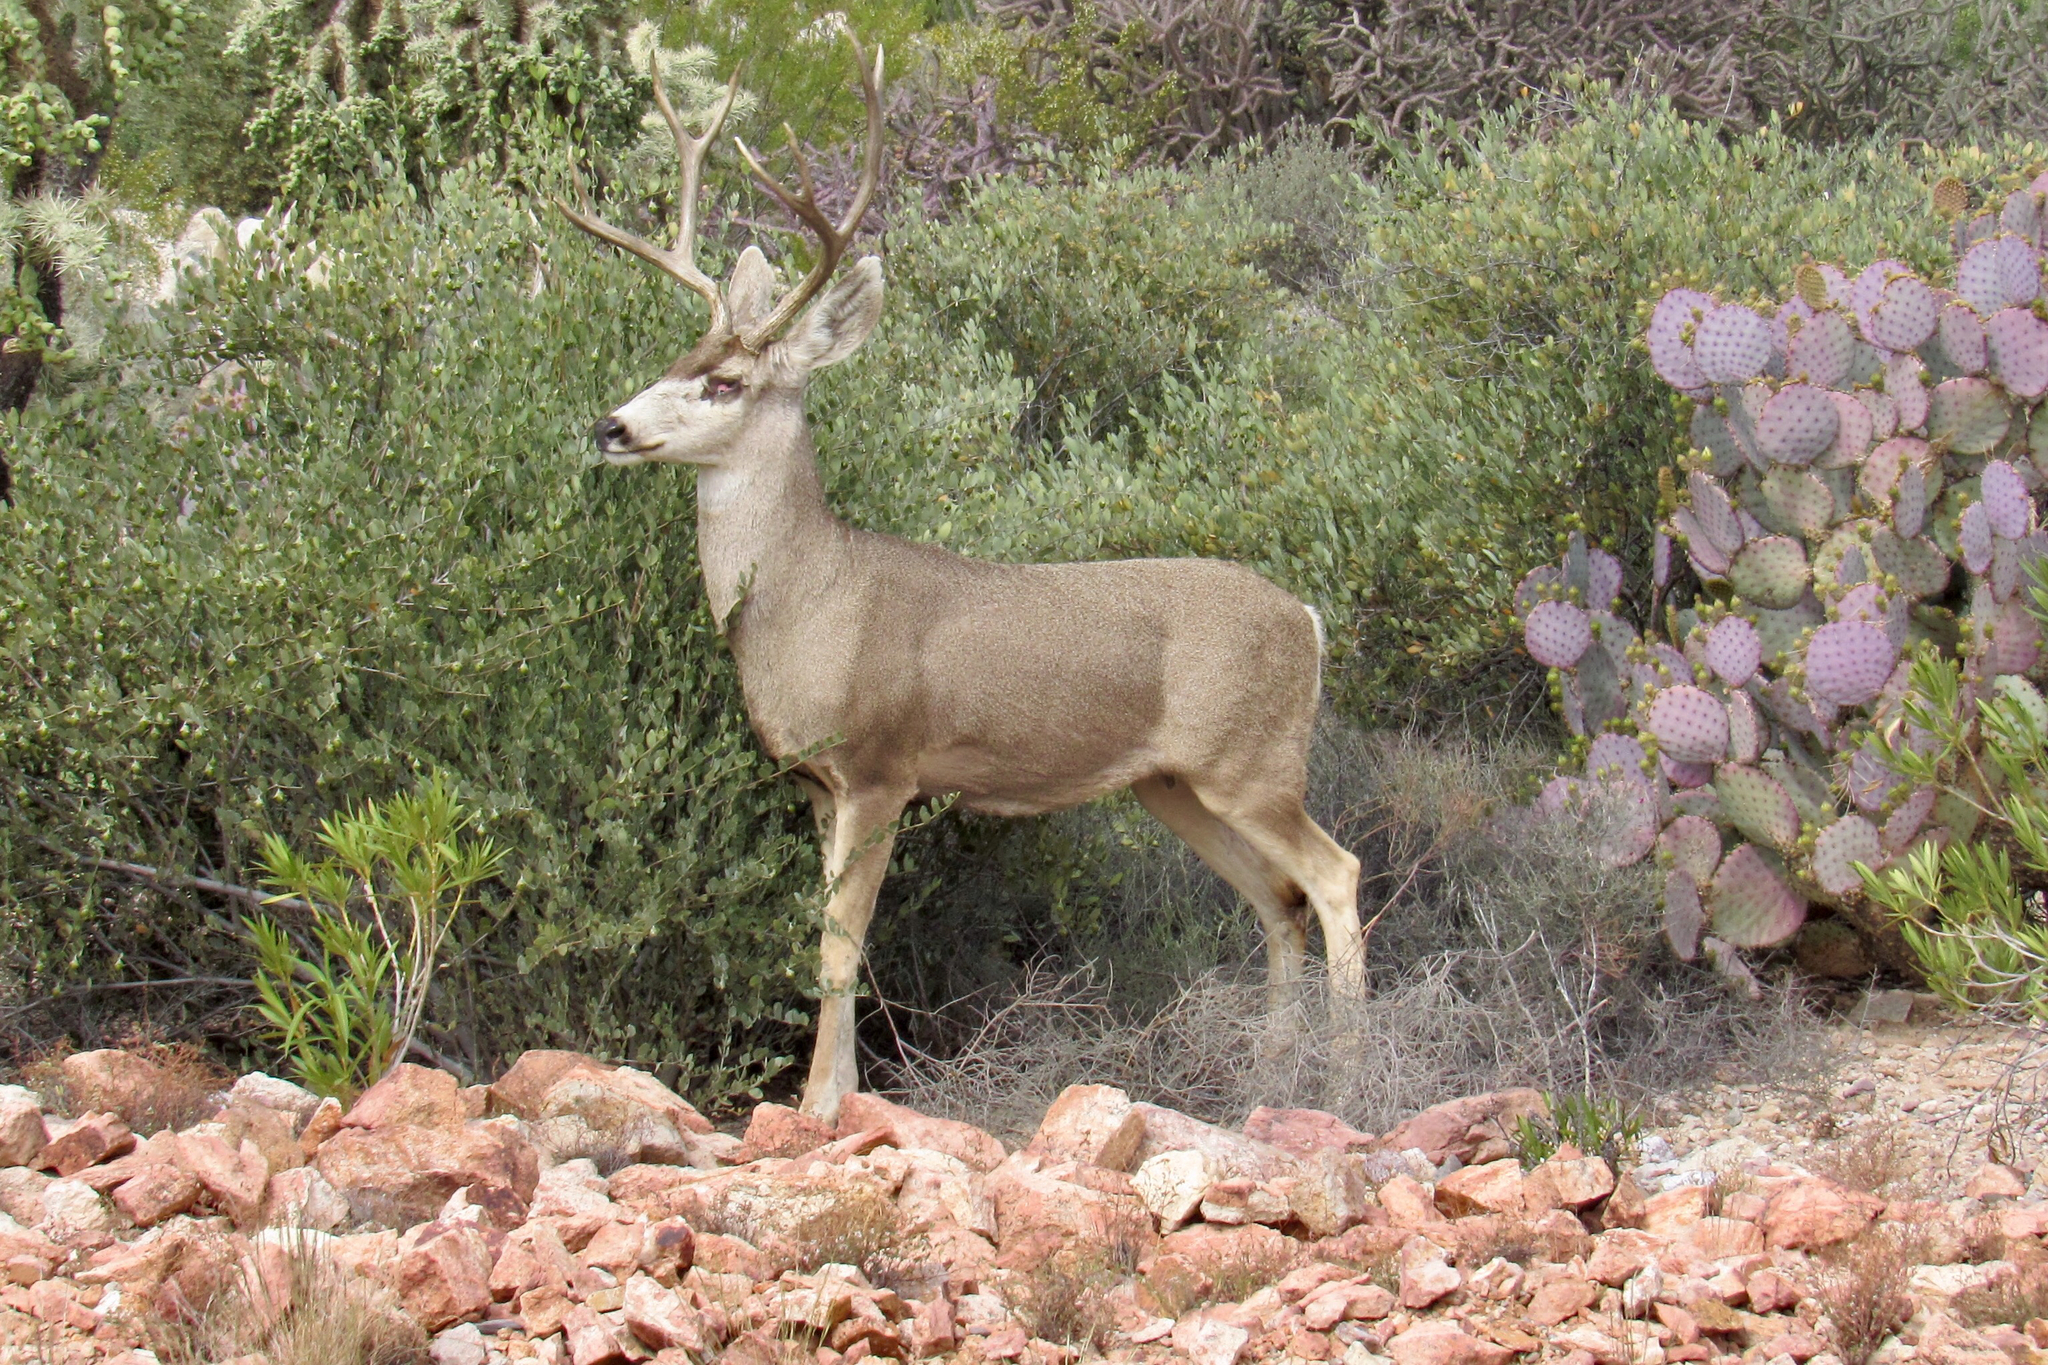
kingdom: Animalia
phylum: Chordata
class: Mammalia
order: Artiodactyla
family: Cervidae
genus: Odocoileus
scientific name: Odocoileus hemionus
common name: Mule deer
